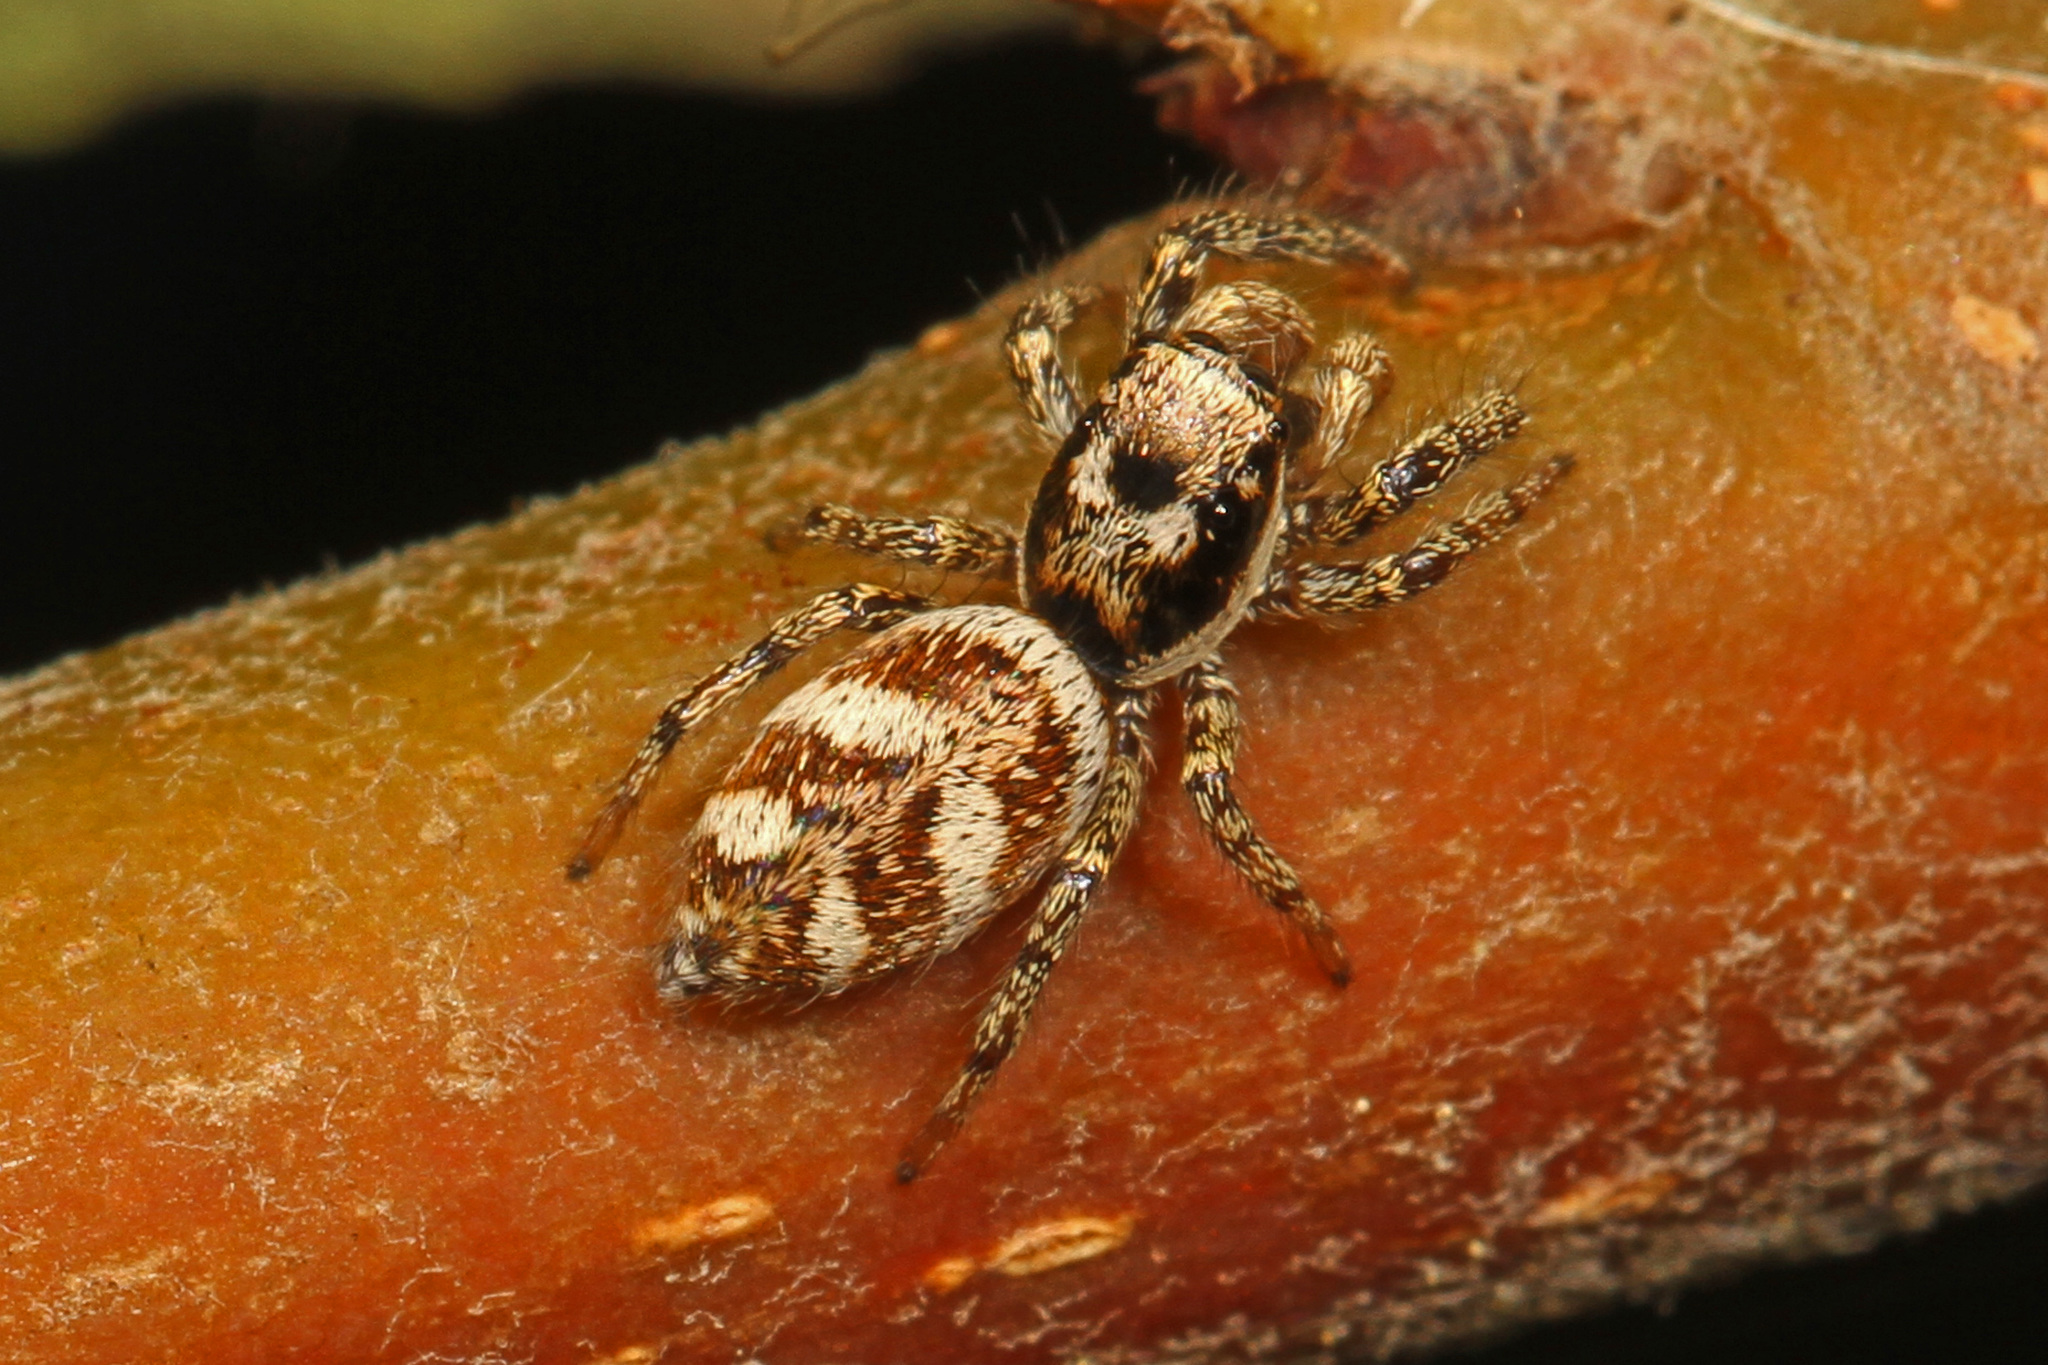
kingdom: Animalia
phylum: Arthropoda
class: Arachnida
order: Araneae
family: Salticidae
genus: Salticus
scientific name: Salticus scenicus
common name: Zebra jumper
